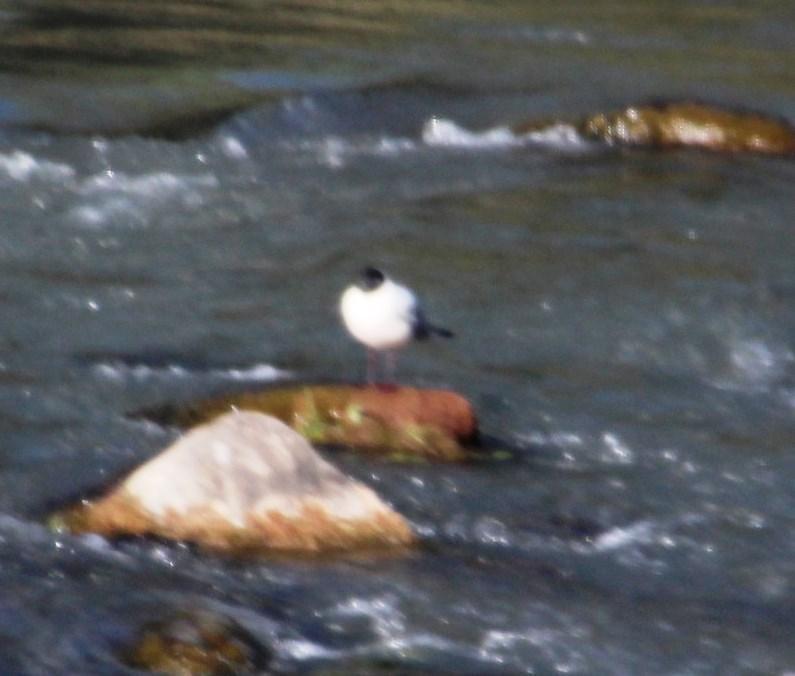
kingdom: Animalia
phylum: Chordata
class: Aves
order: Charadriiformes
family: Laridae
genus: Chroicocephalus
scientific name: Chroicocephalus serranus
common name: Andean gull
